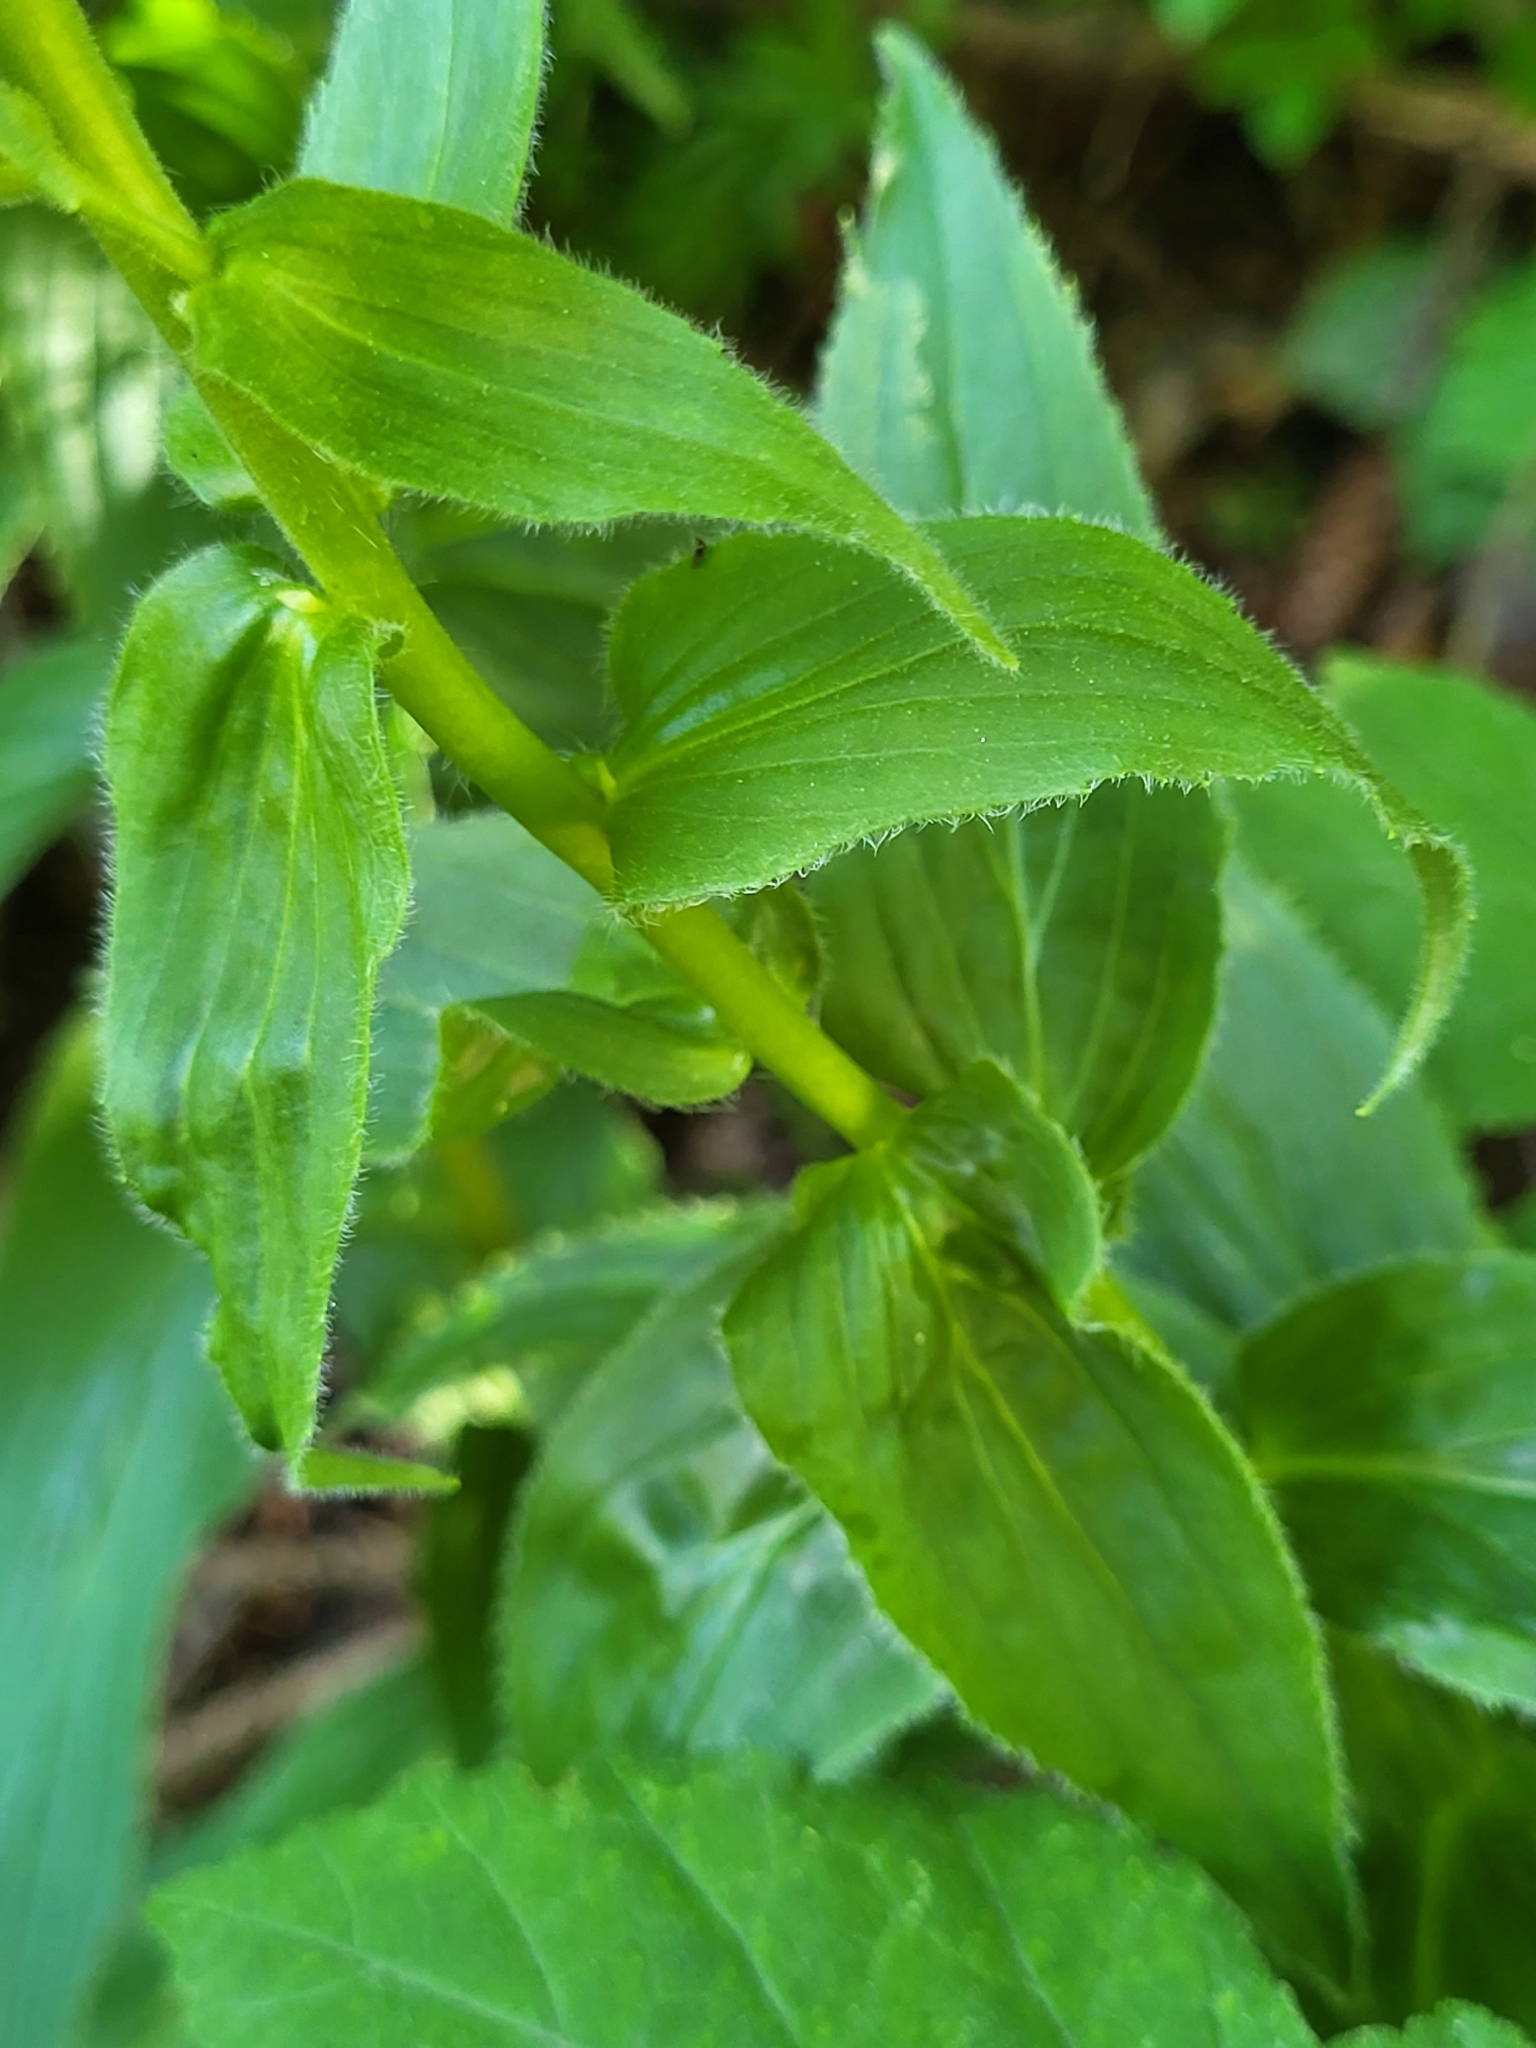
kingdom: Plantae
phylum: Tracheophyta
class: Magnoliopsida
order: Lamiales
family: Plantaginaceae
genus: Digitalis
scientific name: Digitalis grandiflora
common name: Yellow foxglove
